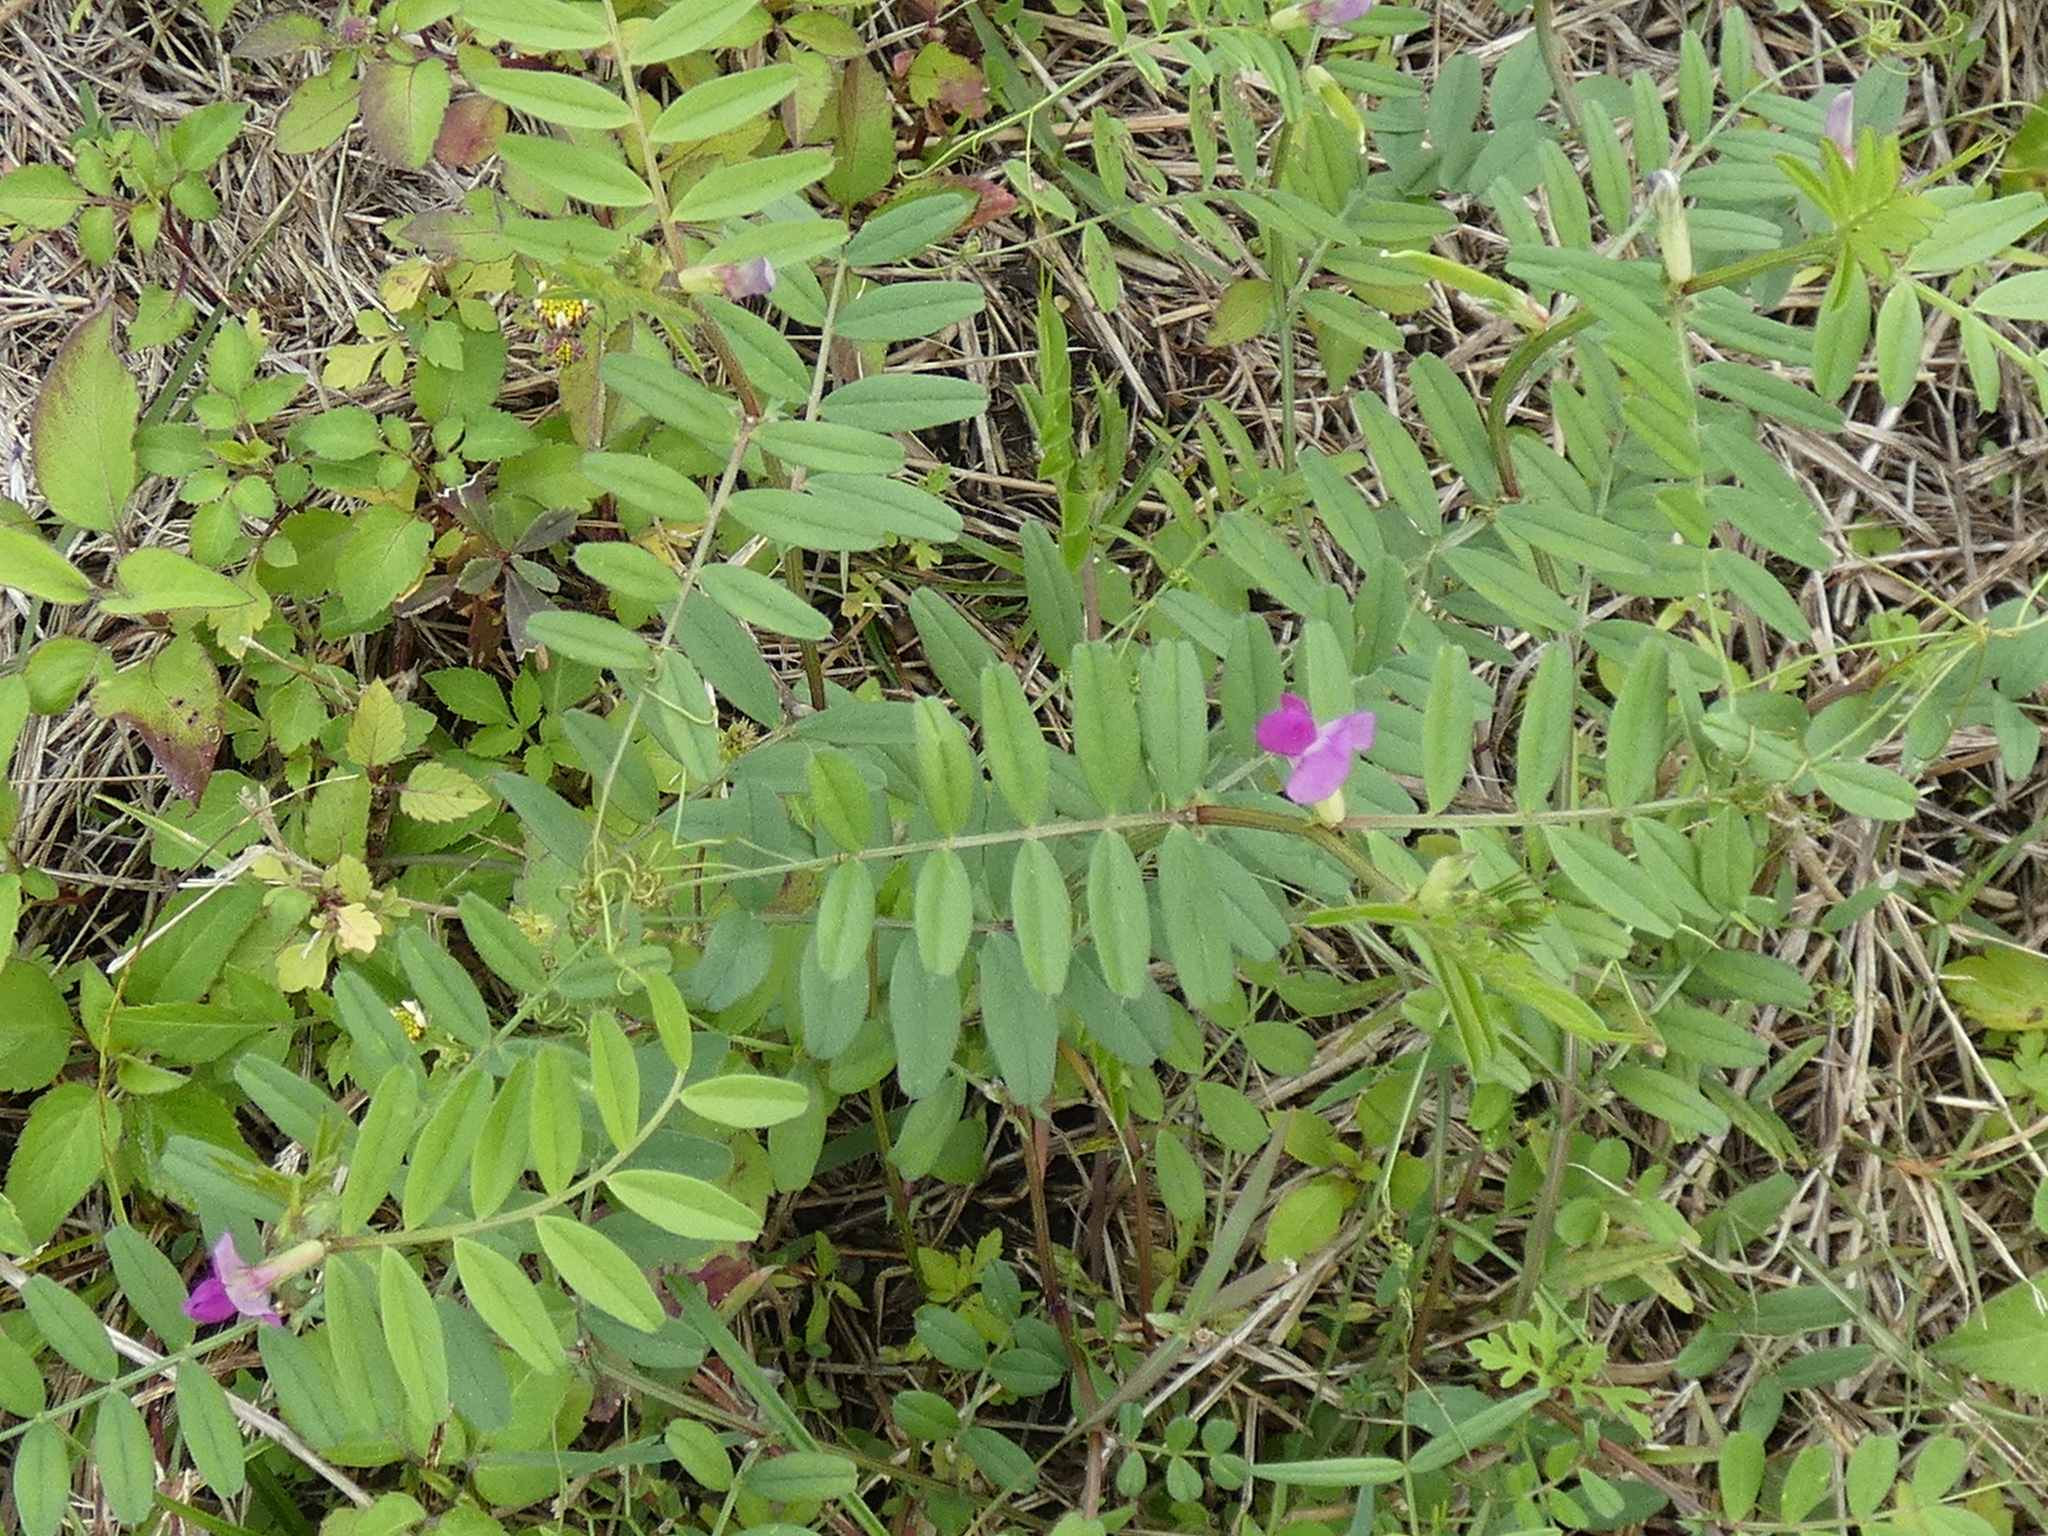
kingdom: Plantae
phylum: Tracheophyta
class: Magnoliopsida
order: Fabales
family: Fabaceae
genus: Vicia
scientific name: Vicia sativa
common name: Garden vetch
